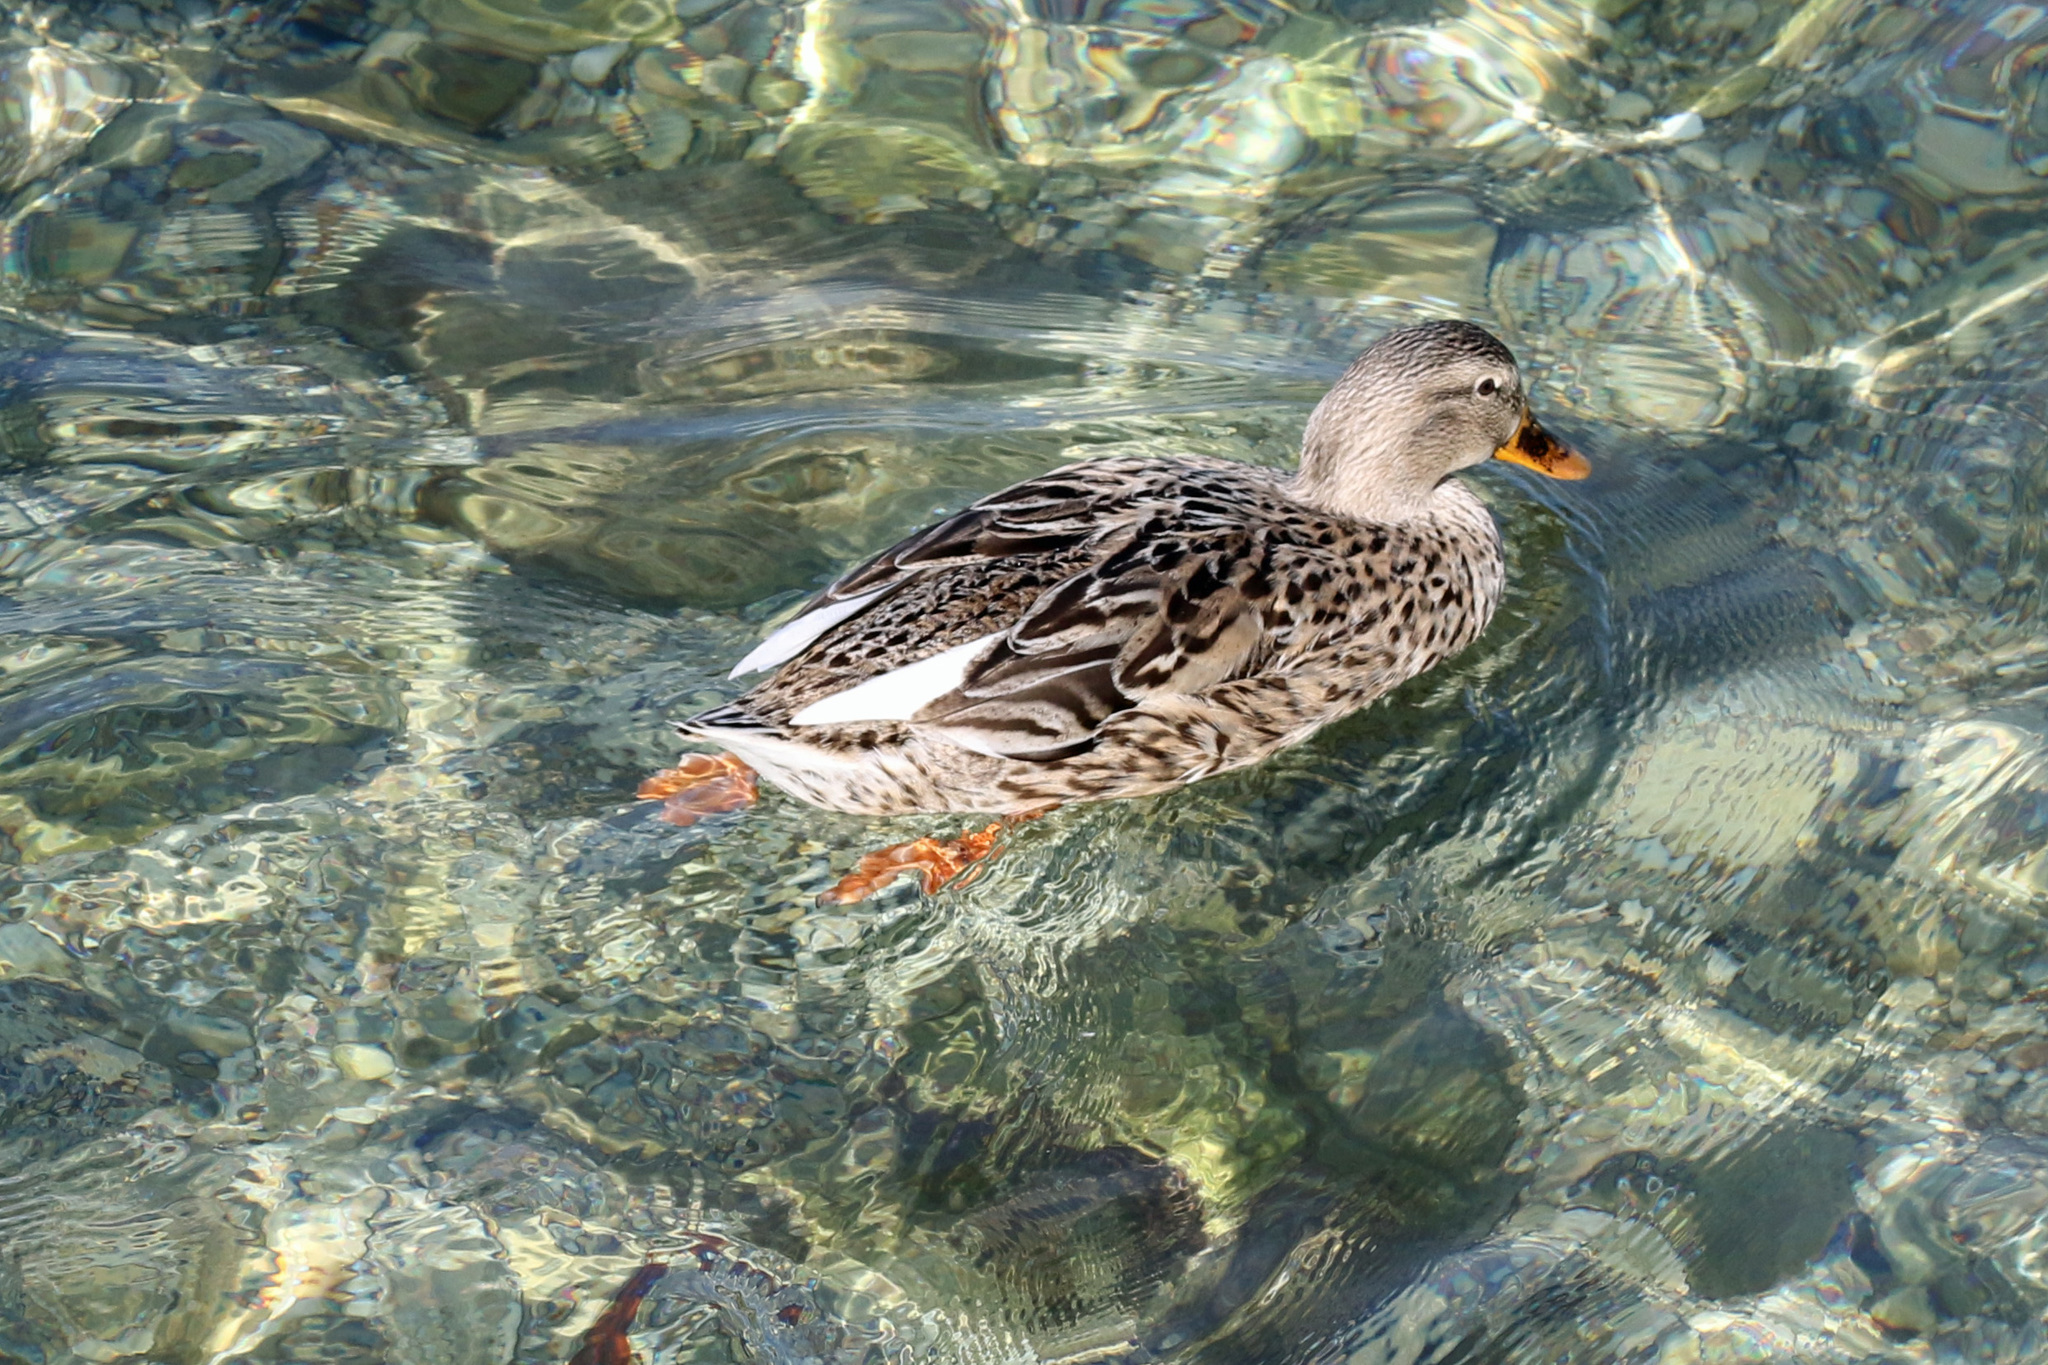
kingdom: Animalia
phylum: Chordata
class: Aves
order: Anseriformes
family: Anatidae
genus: Anas
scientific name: Anas platyrhynchos
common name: Mallard
